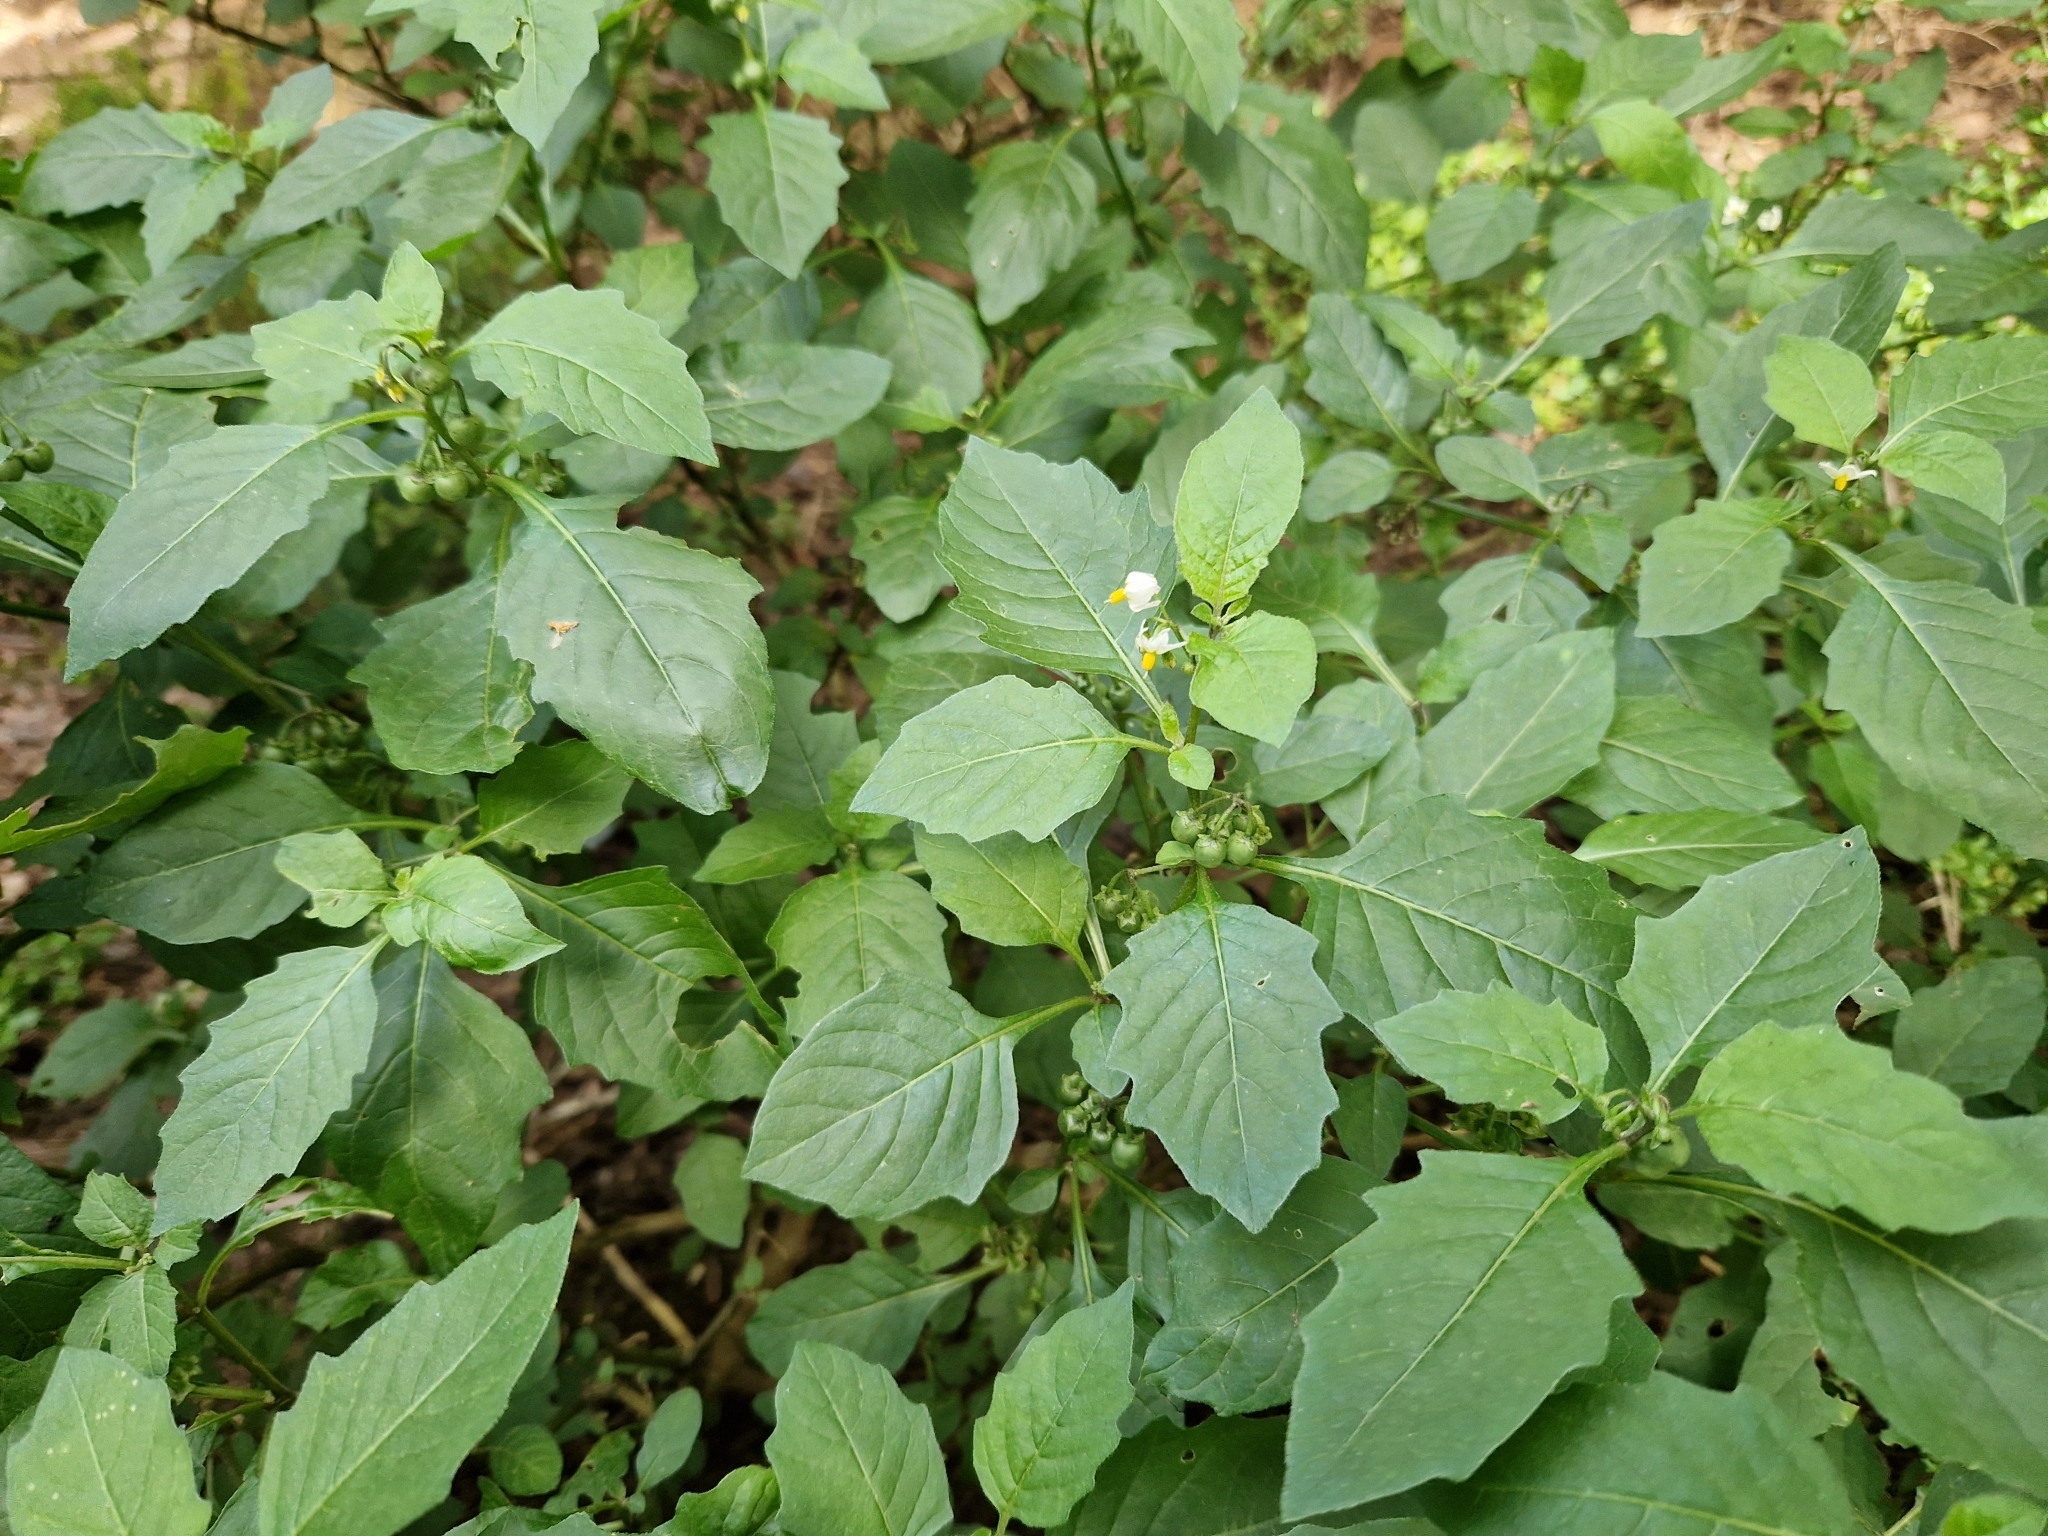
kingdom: Plantae
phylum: Tracheophyta
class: Magnoliopsida
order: Solanales
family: Solanaceae
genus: Solanum
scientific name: Solanum nigrum
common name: Black nightshade
